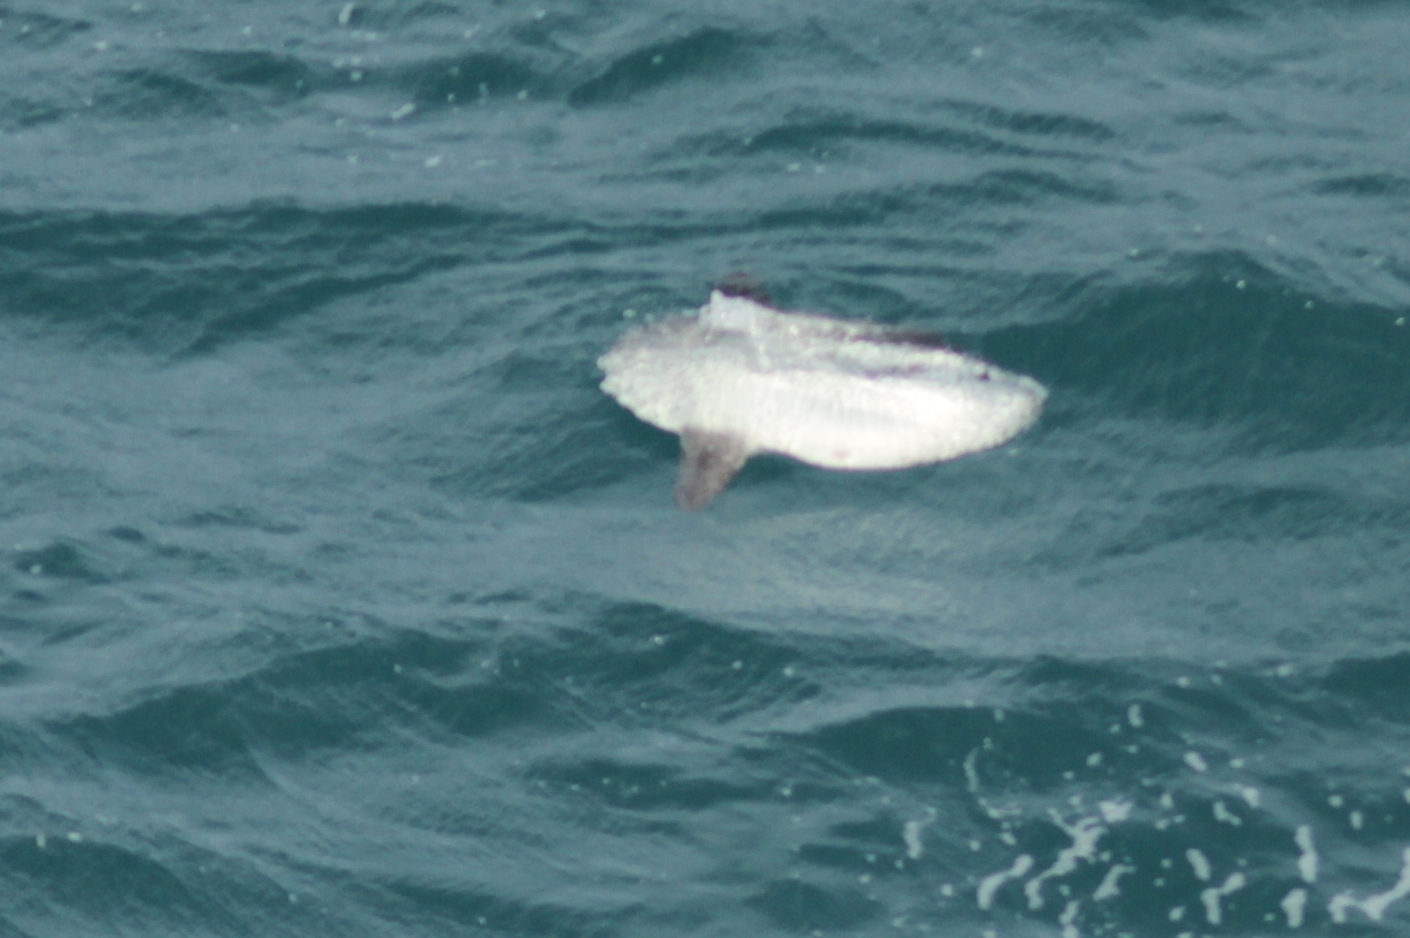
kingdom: Animalia
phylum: Chordata
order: Tetraodontiformes
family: Molidae
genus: Mola
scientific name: Mola mola
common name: Ocean sunfish
